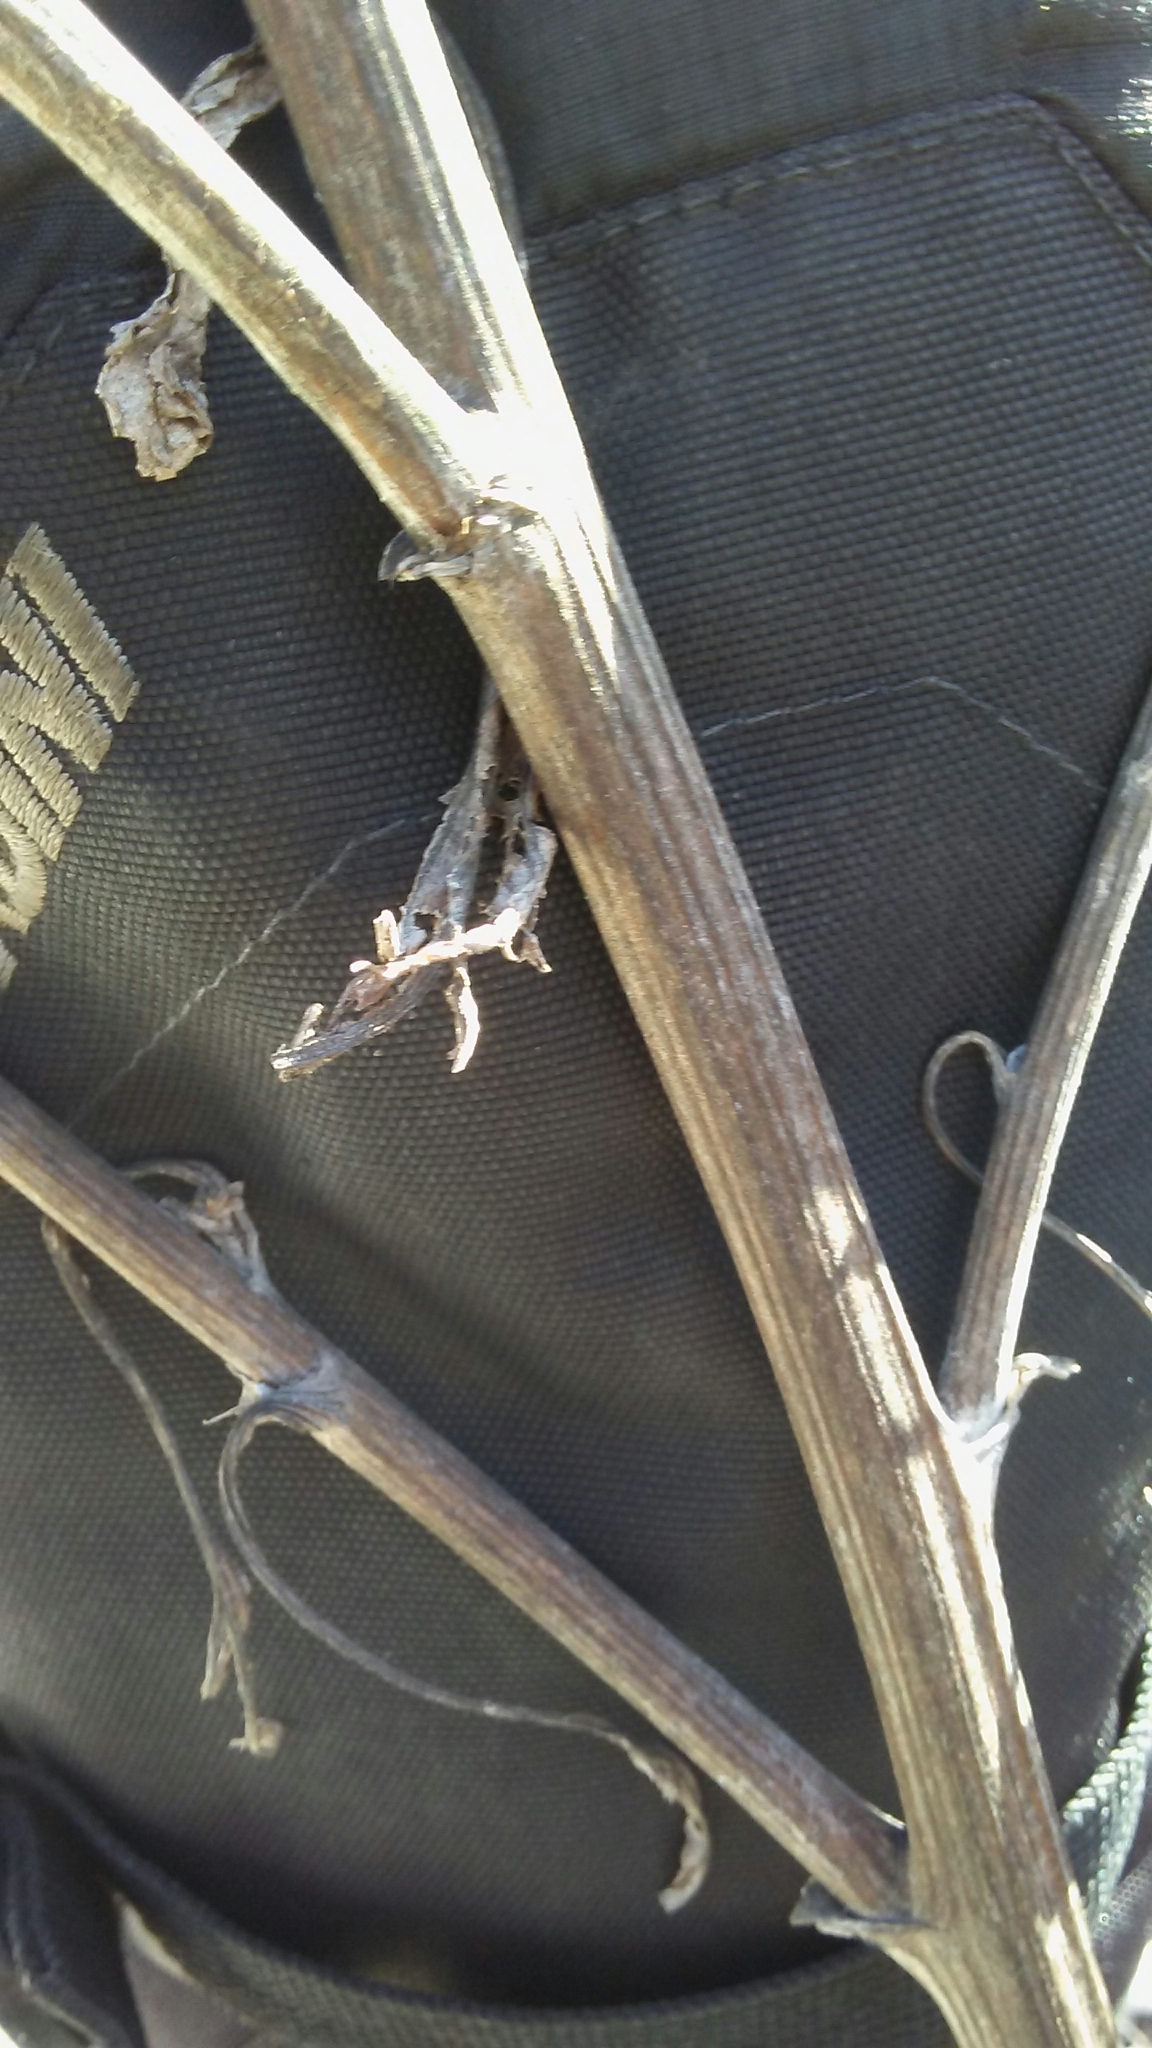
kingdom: Plantae
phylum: Tracheophyta
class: Magnoliopsida
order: Asterales
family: Asteraceae
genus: Arctium
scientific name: Arctium minus
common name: Lesser burdock
